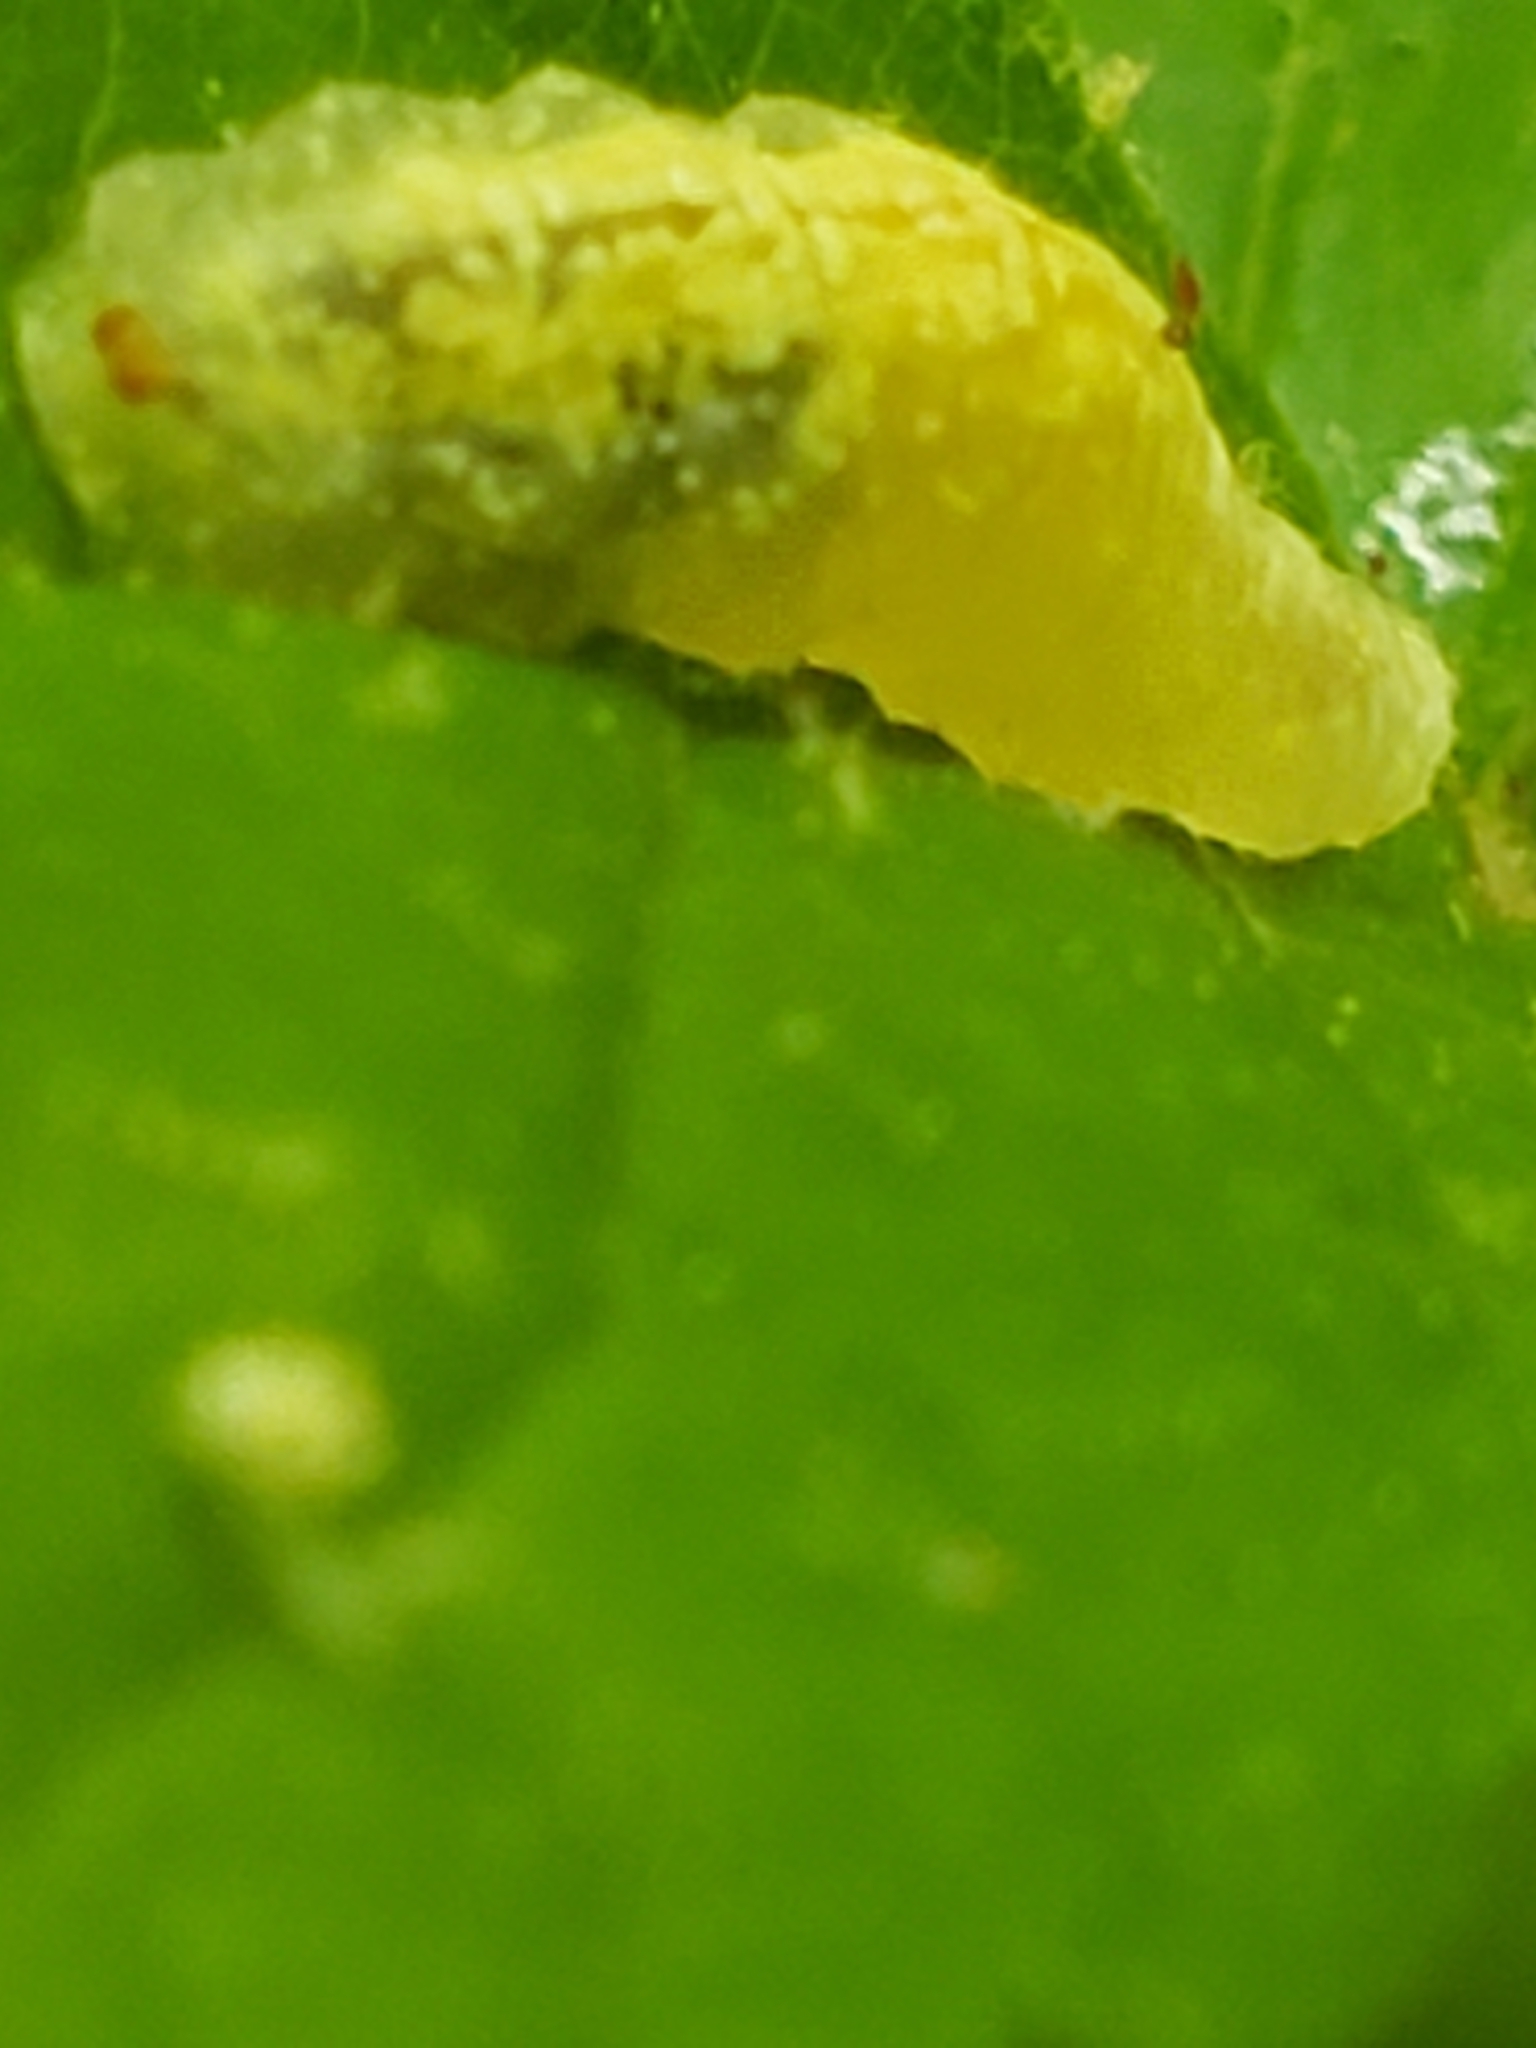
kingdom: Animalia
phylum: Arthropoda
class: Insecta
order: Diptera
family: Syrphidae
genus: Syrphus
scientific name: Syrphus
